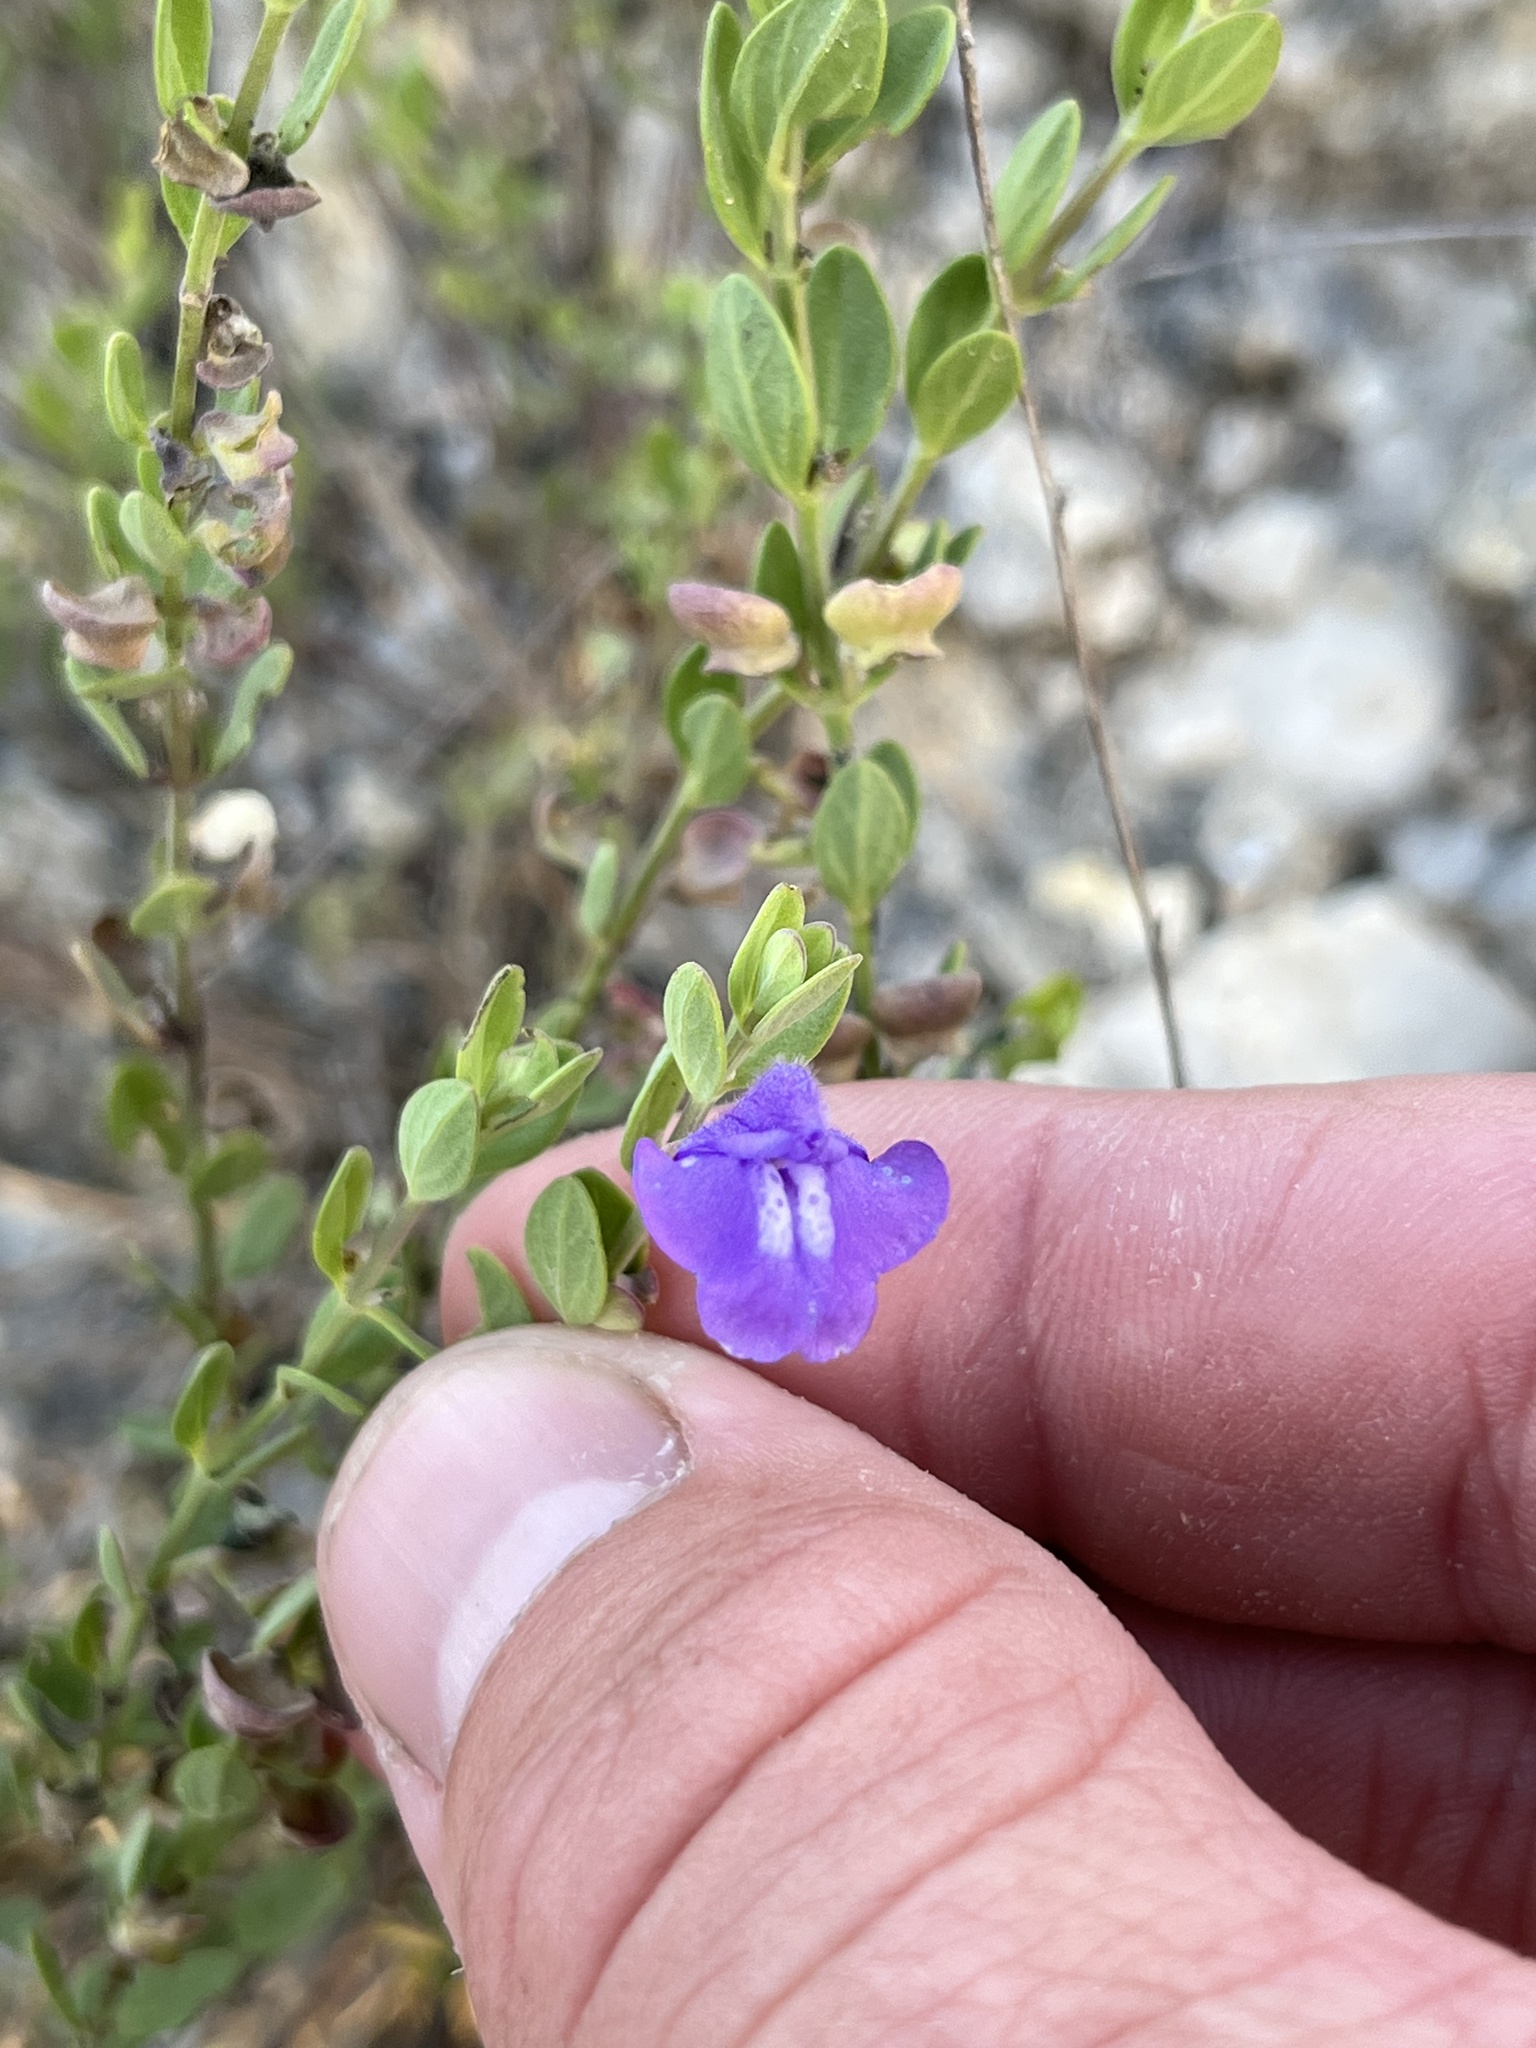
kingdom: Plantae
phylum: Tracheophyta
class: Magnoliopsida
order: Lamiales
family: Lamiaceae
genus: Scutellaria
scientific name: Scutellaria wrightii
